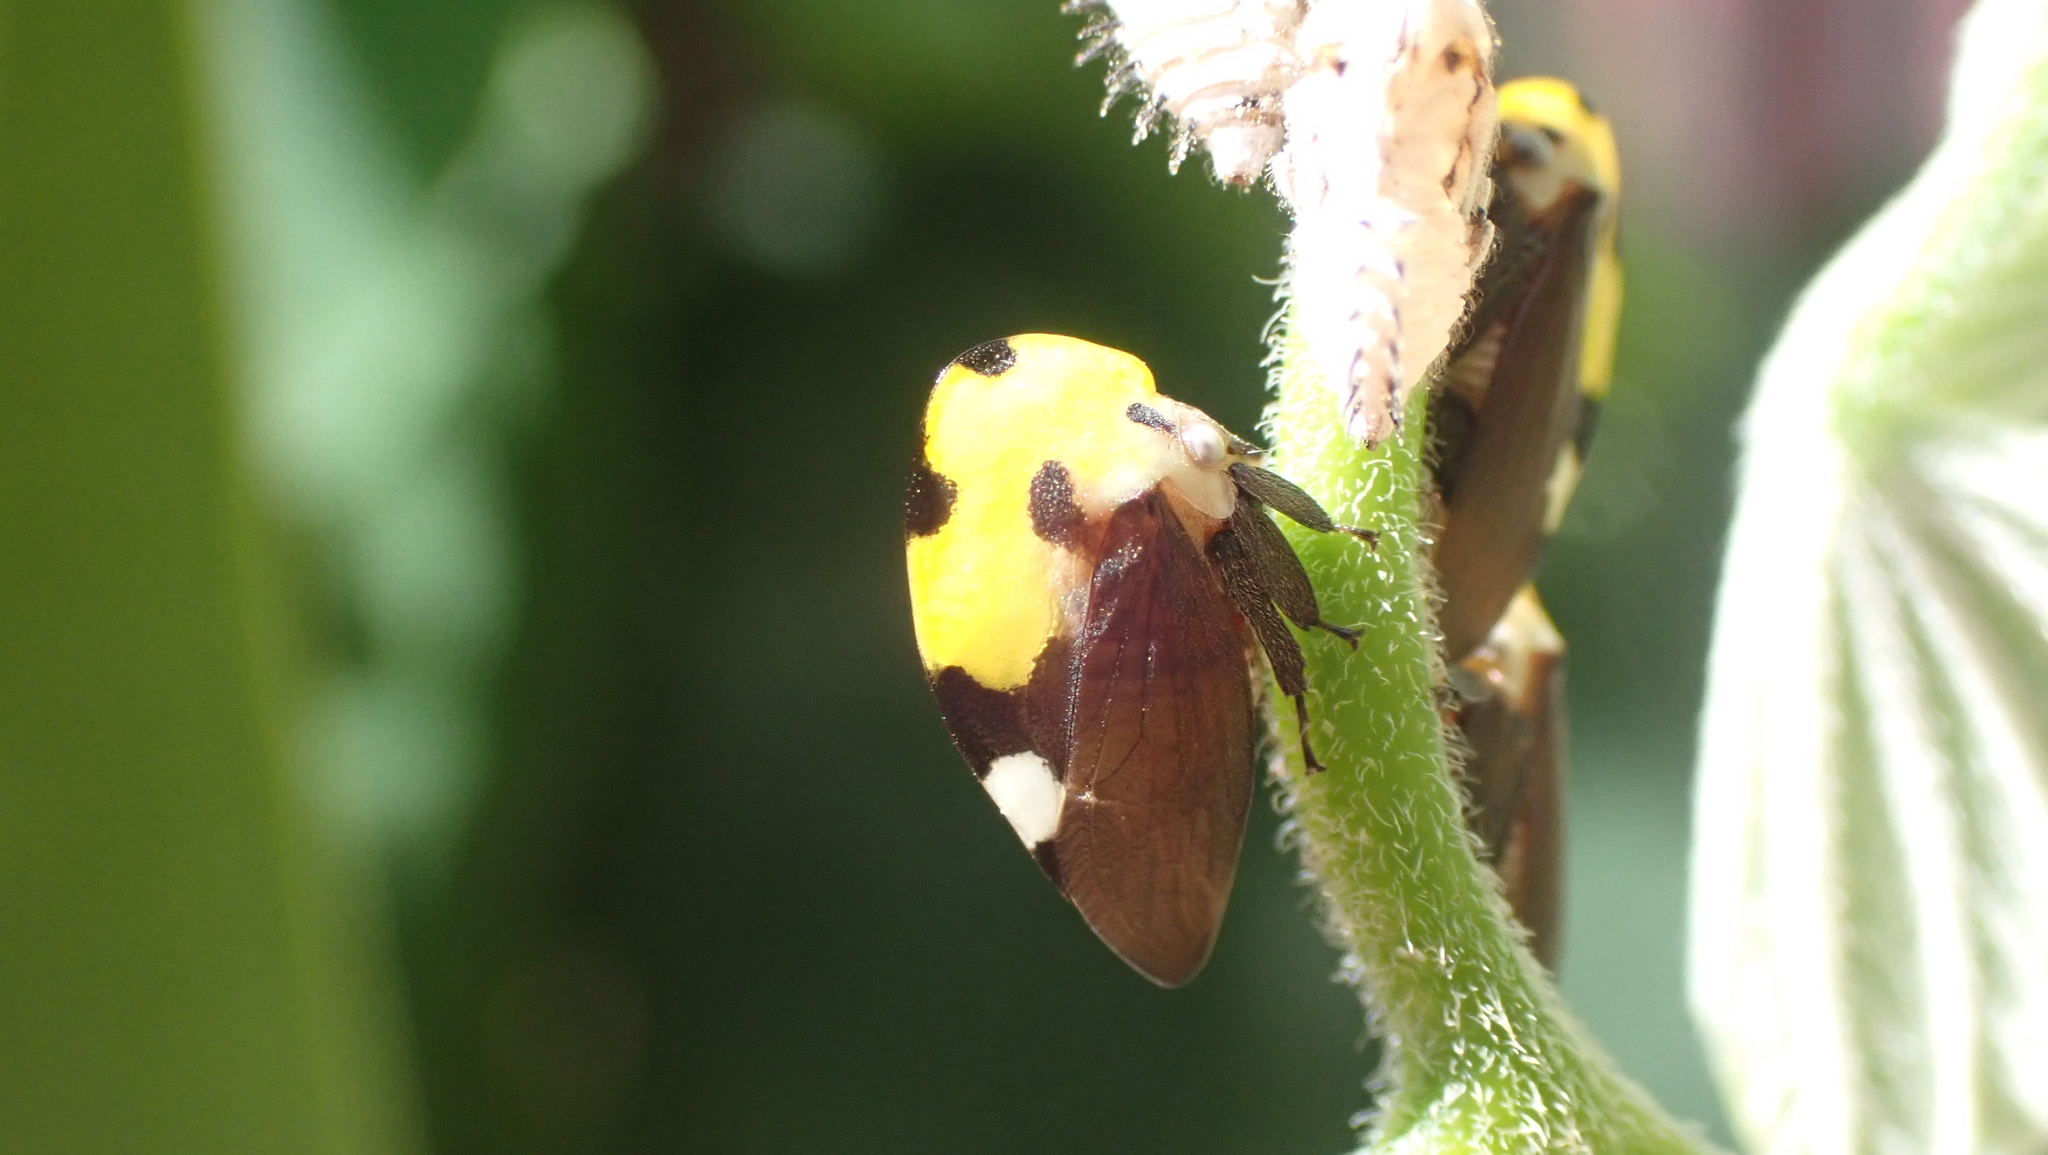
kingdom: Animalia
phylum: Arthropoda
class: Insecta
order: Hemiptera
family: Membracidae
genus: Membracis
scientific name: Membracis mexicana
